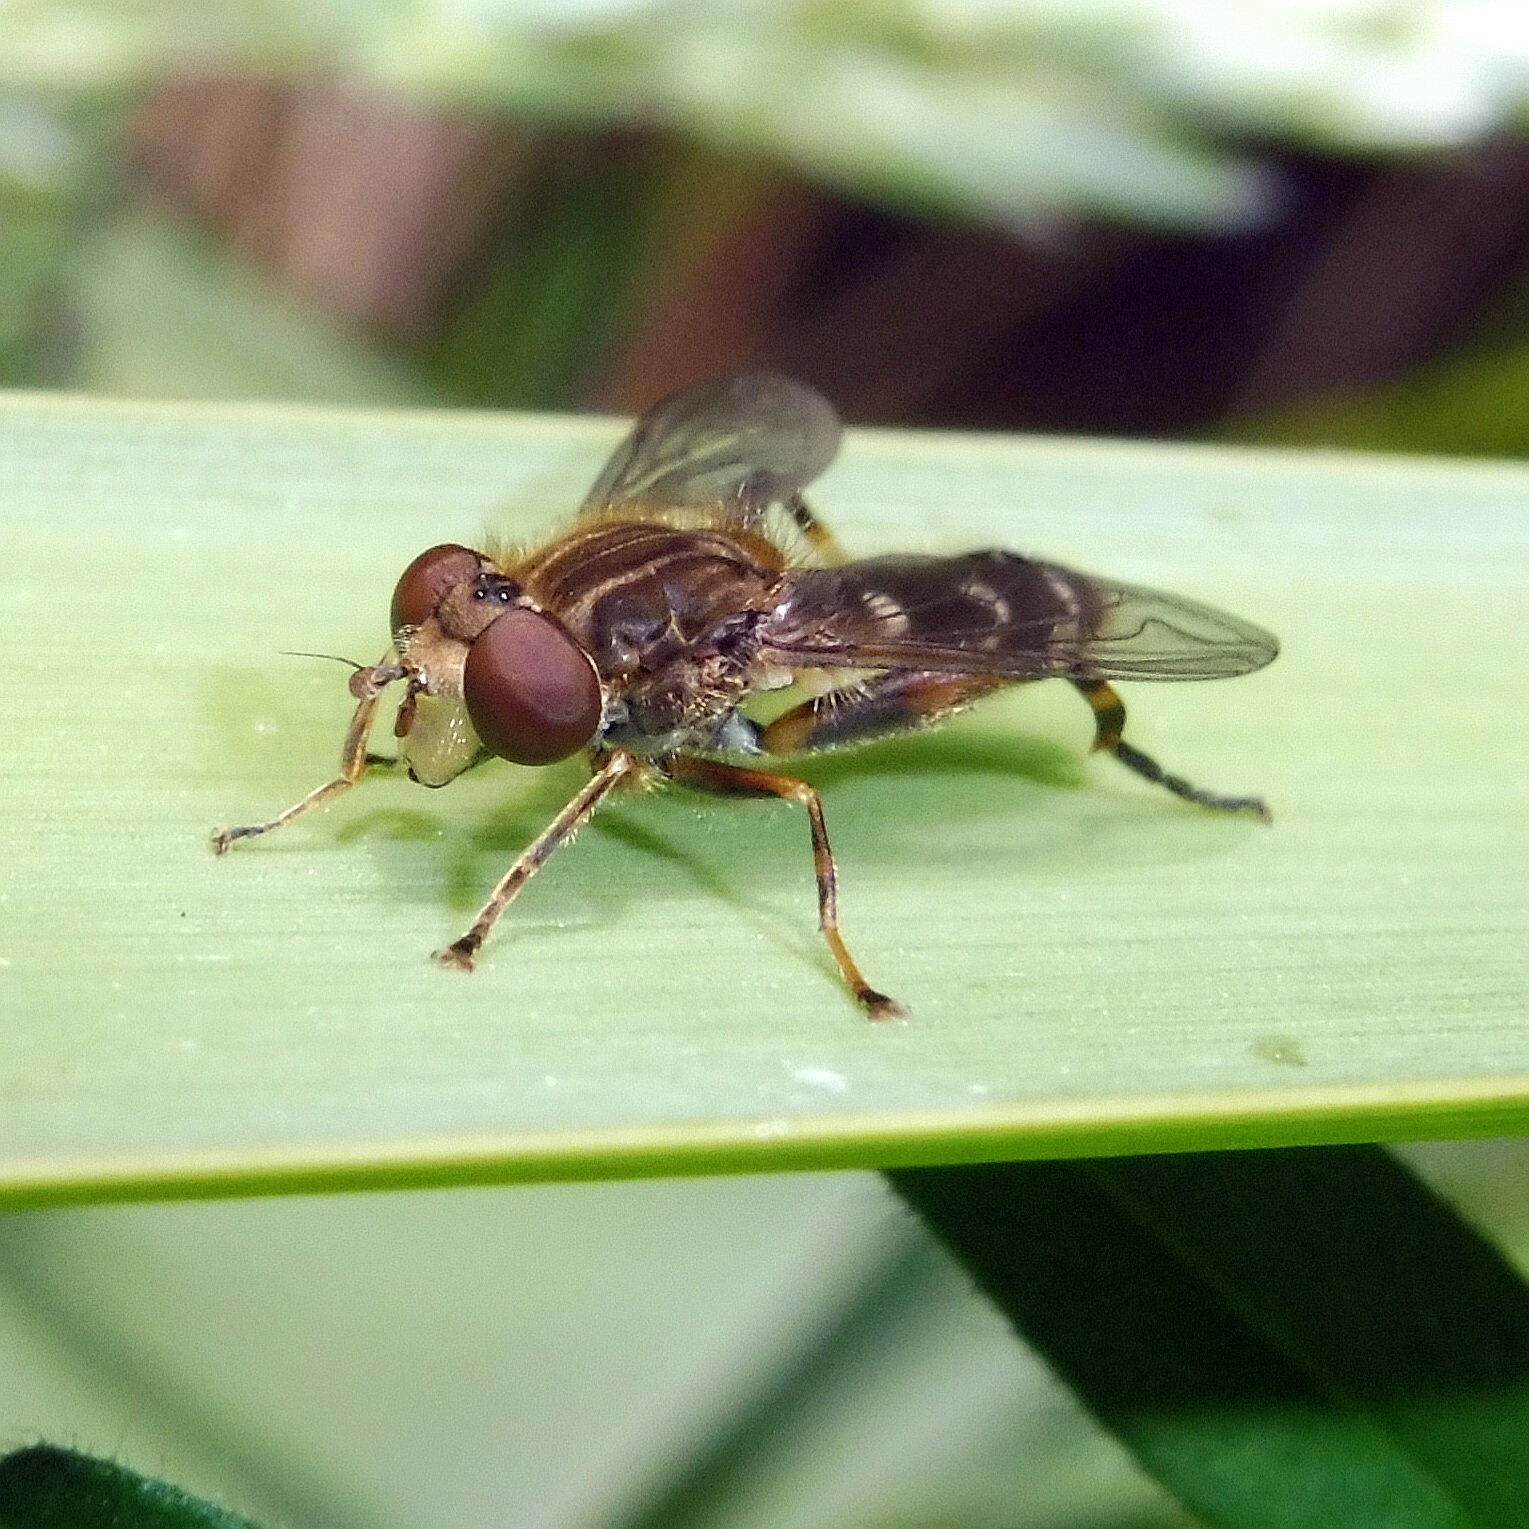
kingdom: Animalia
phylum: Arthropoda
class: Insecta
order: Diptera
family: Syrphidae
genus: Anasimyia
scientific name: Anasimyia contracta
